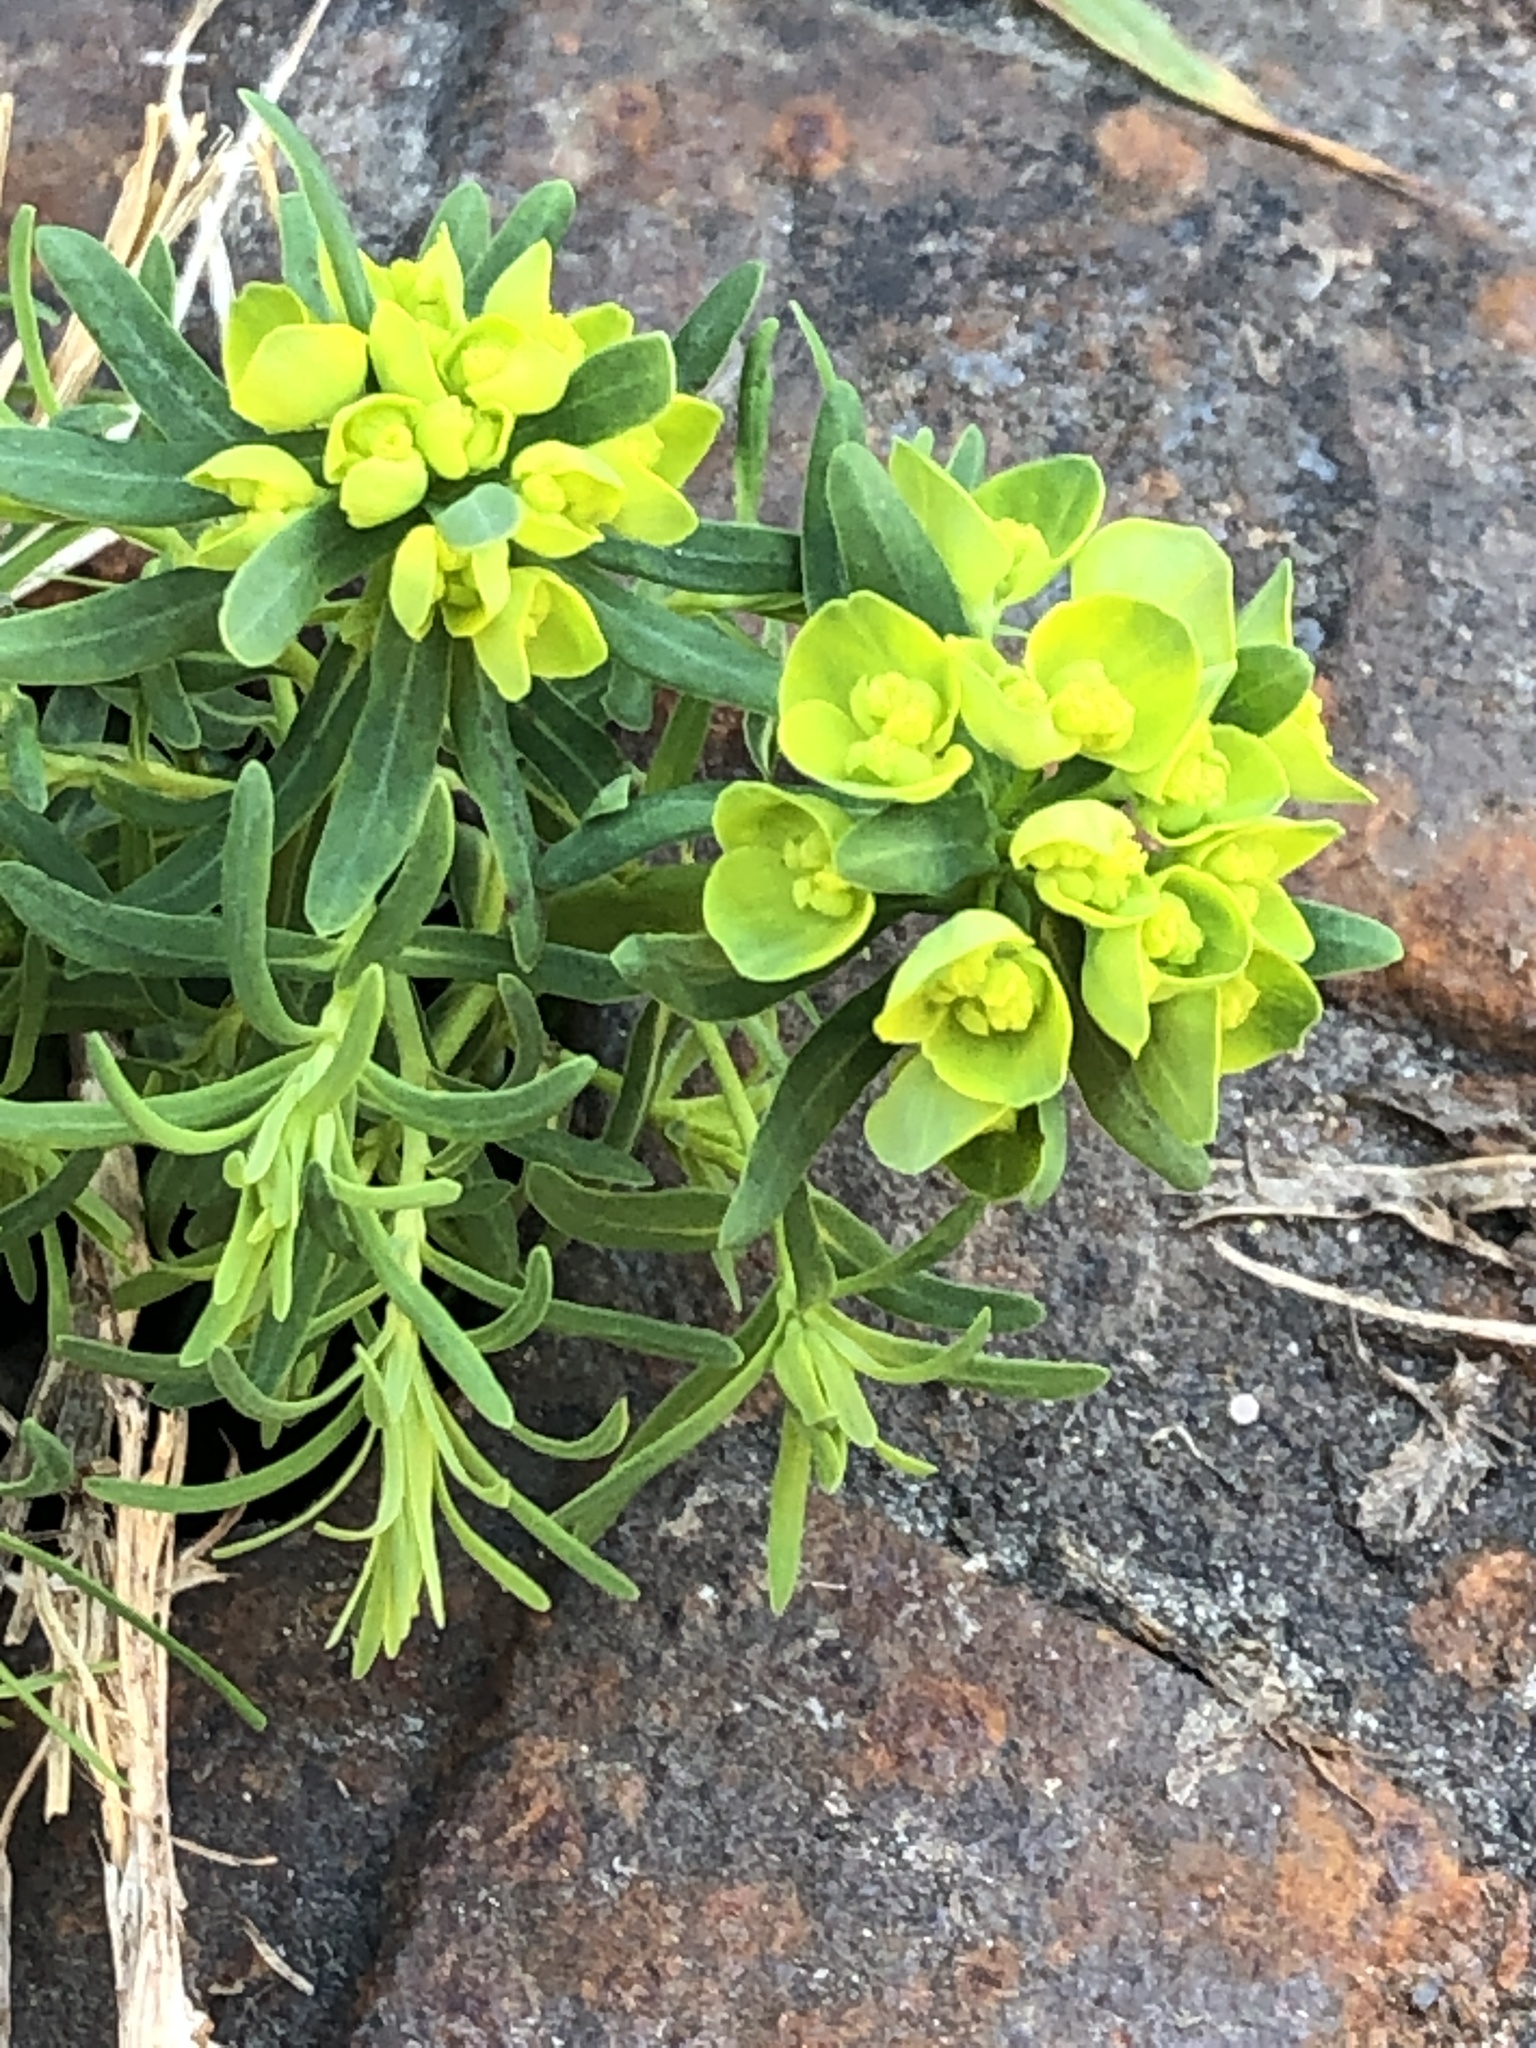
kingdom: Plantae
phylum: Tracheophyta
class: Magnoliopsida
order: Malpighiales
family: Euphorbiaceae
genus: Euphorbia
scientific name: Euphorbia cyparissias
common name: Cypress spurge
